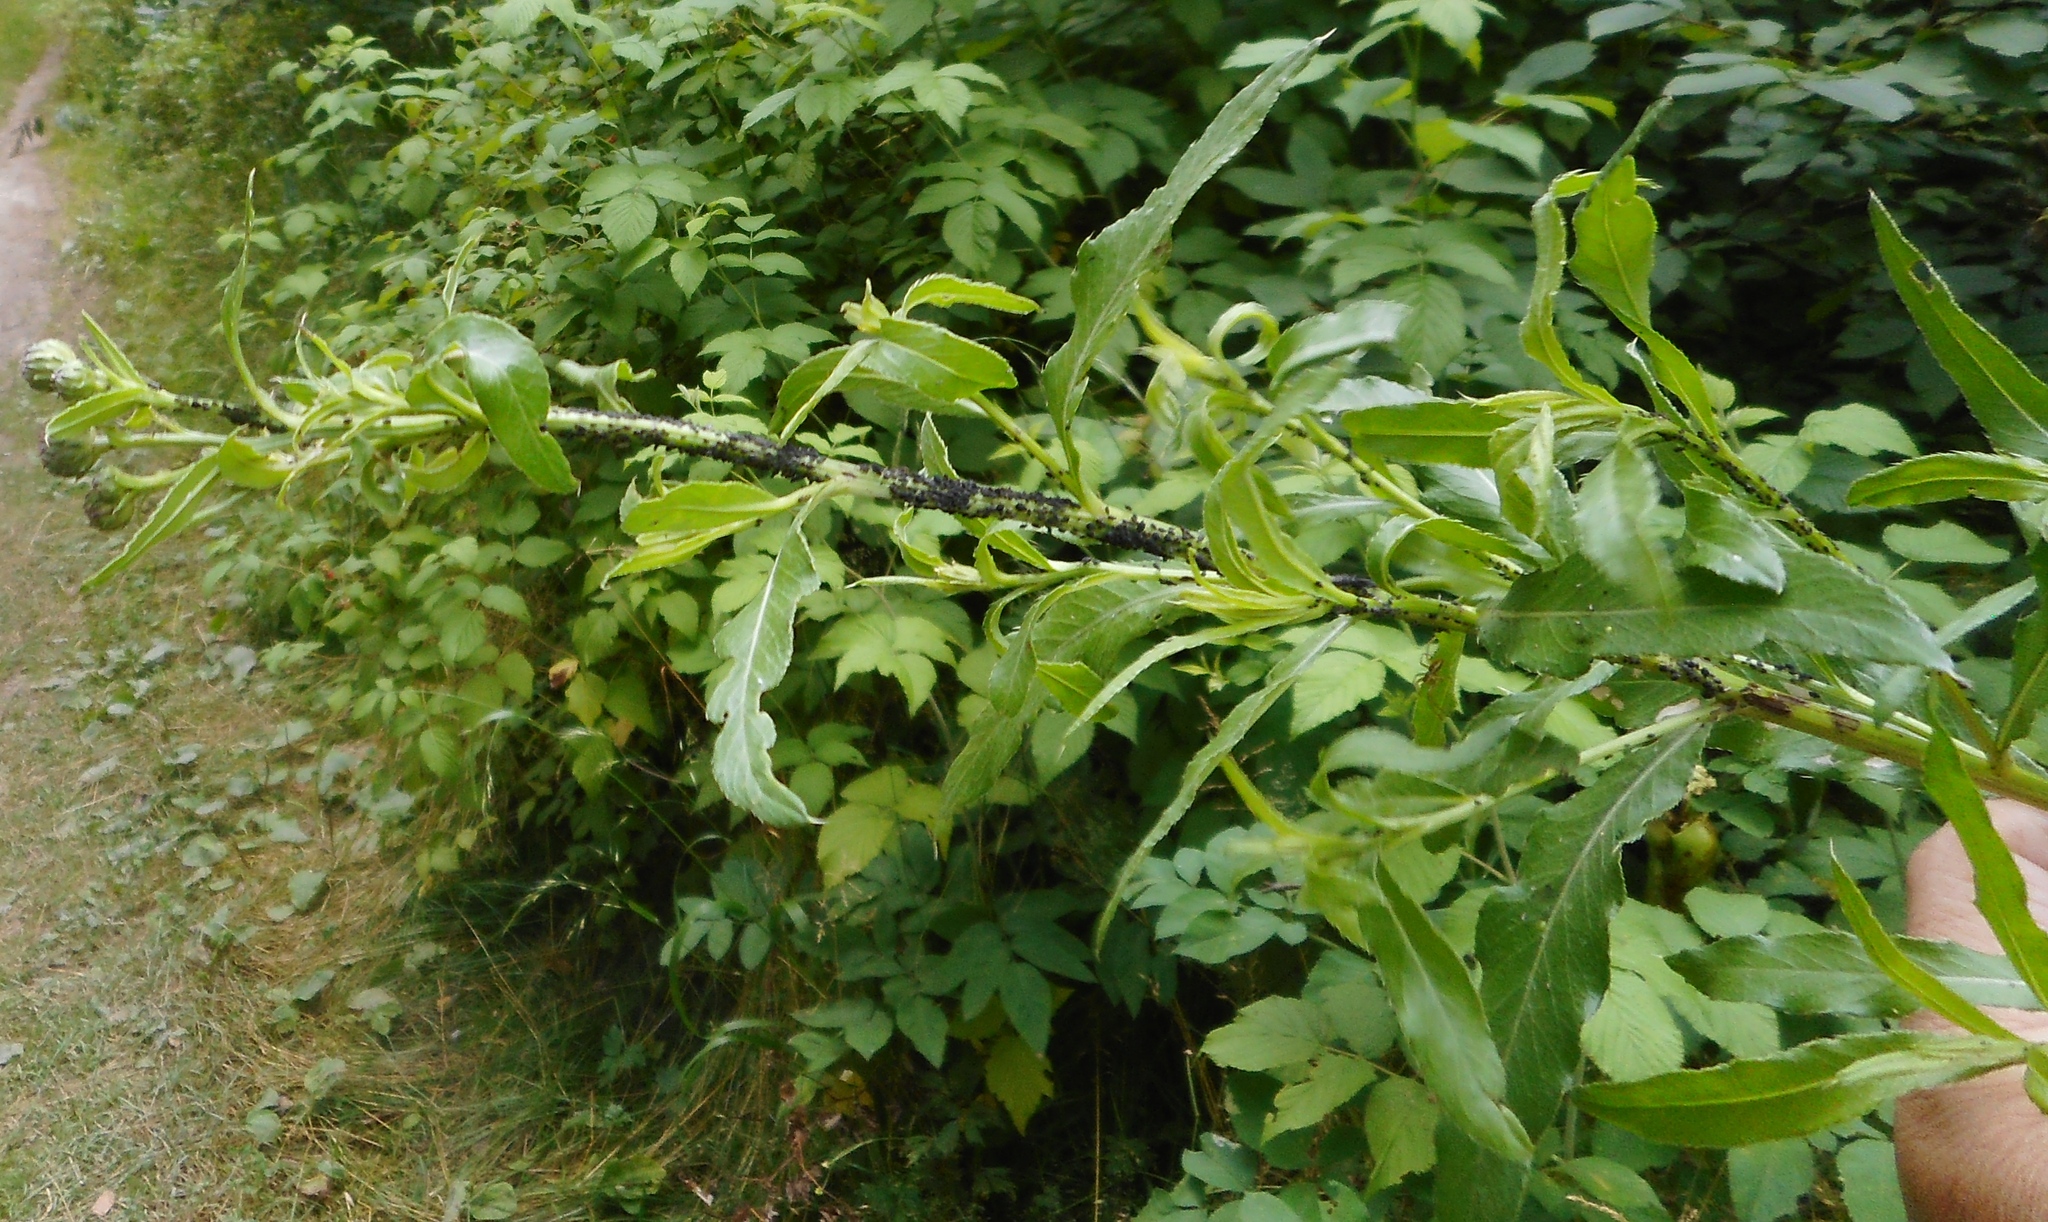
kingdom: Plantae
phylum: Tracheophyta
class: Magnoliopsida
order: Asterales
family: Asteraceae
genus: Cirsium
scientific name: Cirsium arvense
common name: Creeping thistle
